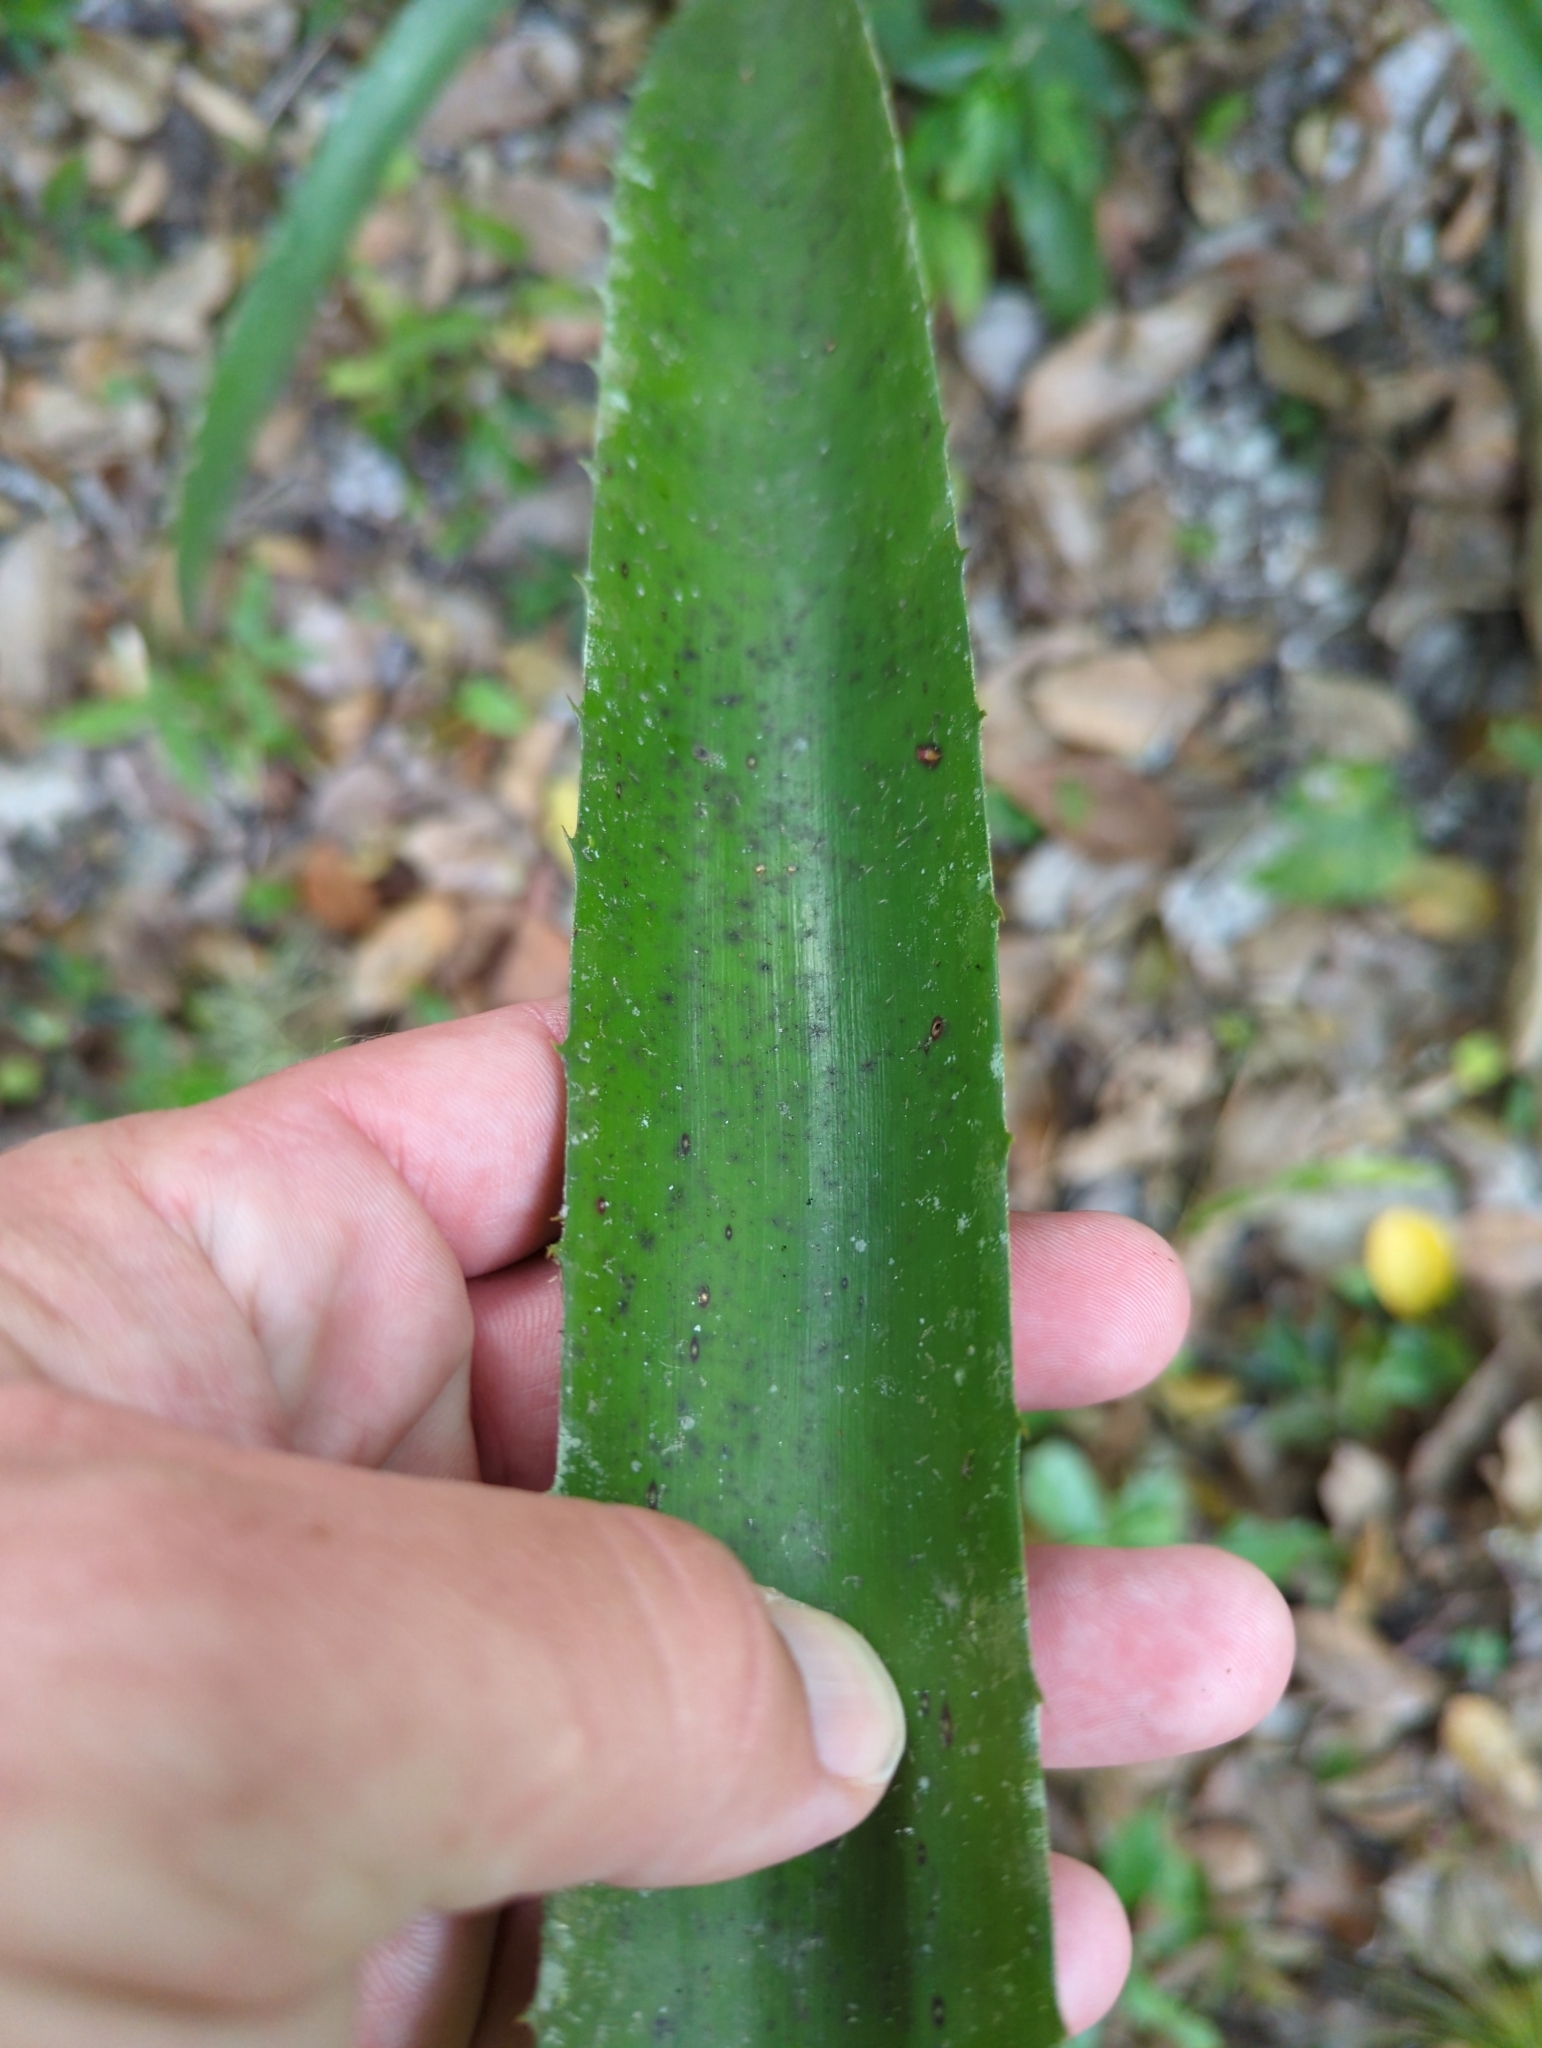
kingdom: Plantae
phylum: Tracheophyta
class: Liliopsida
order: Poales
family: Bromeliaceae
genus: Aechmea
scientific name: Aechmea bracteata
